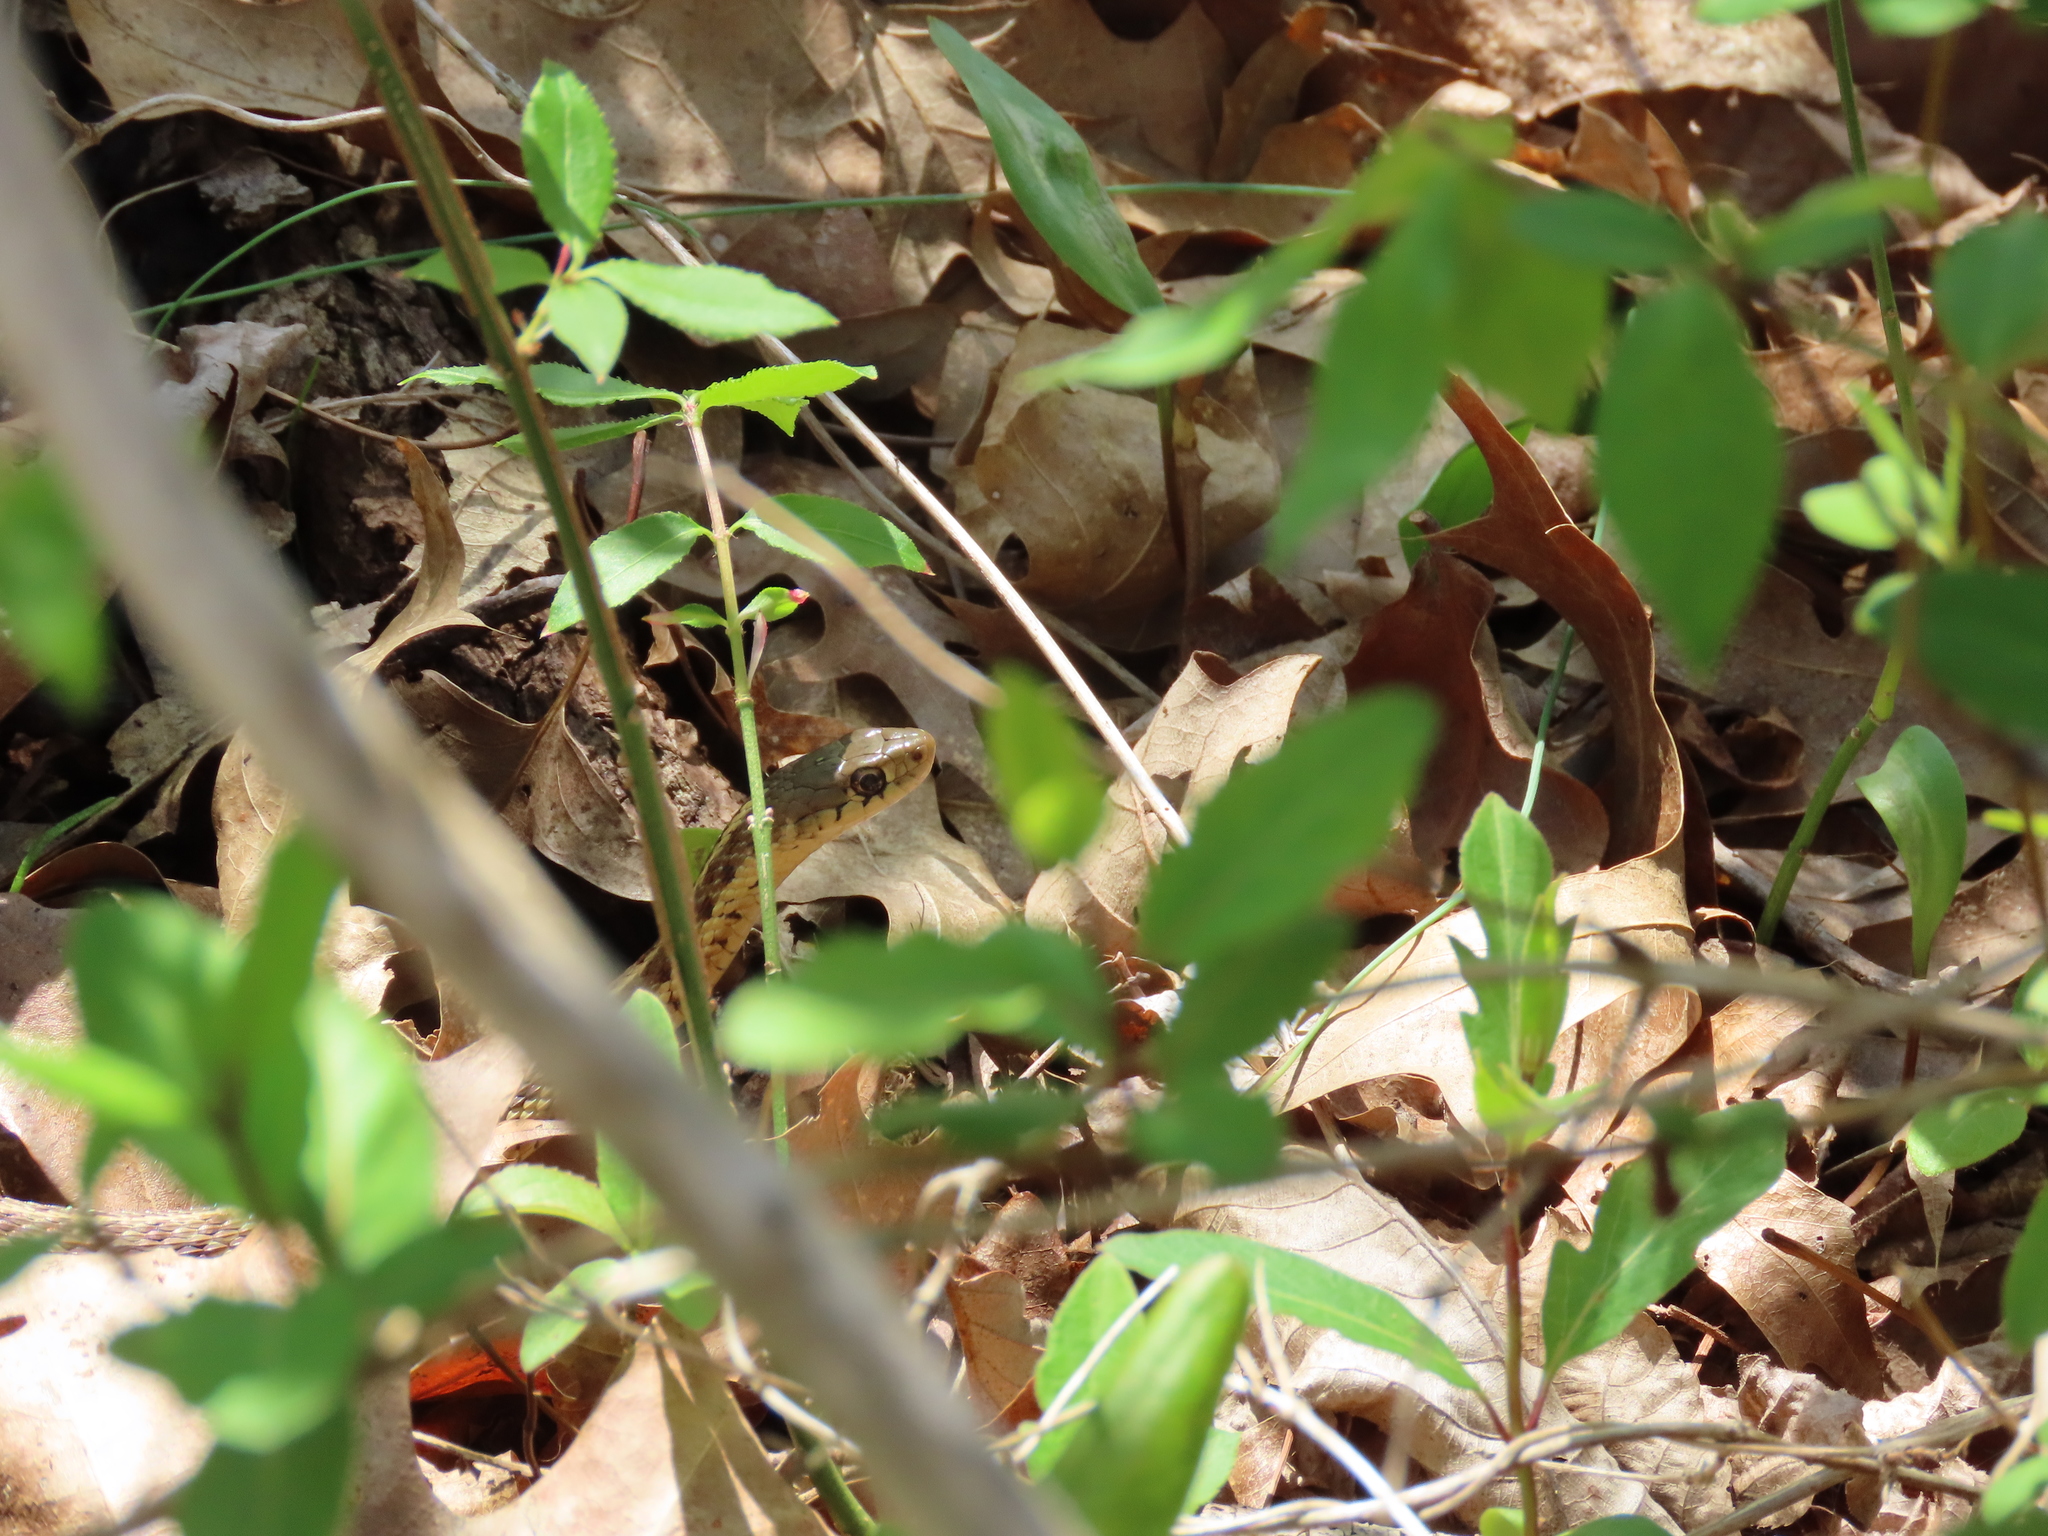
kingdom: Animalia
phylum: Chordata
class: Squamata
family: Colubridae
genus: Thamnophis
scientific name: Thamnophis sirtalis
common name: Common garter snake
